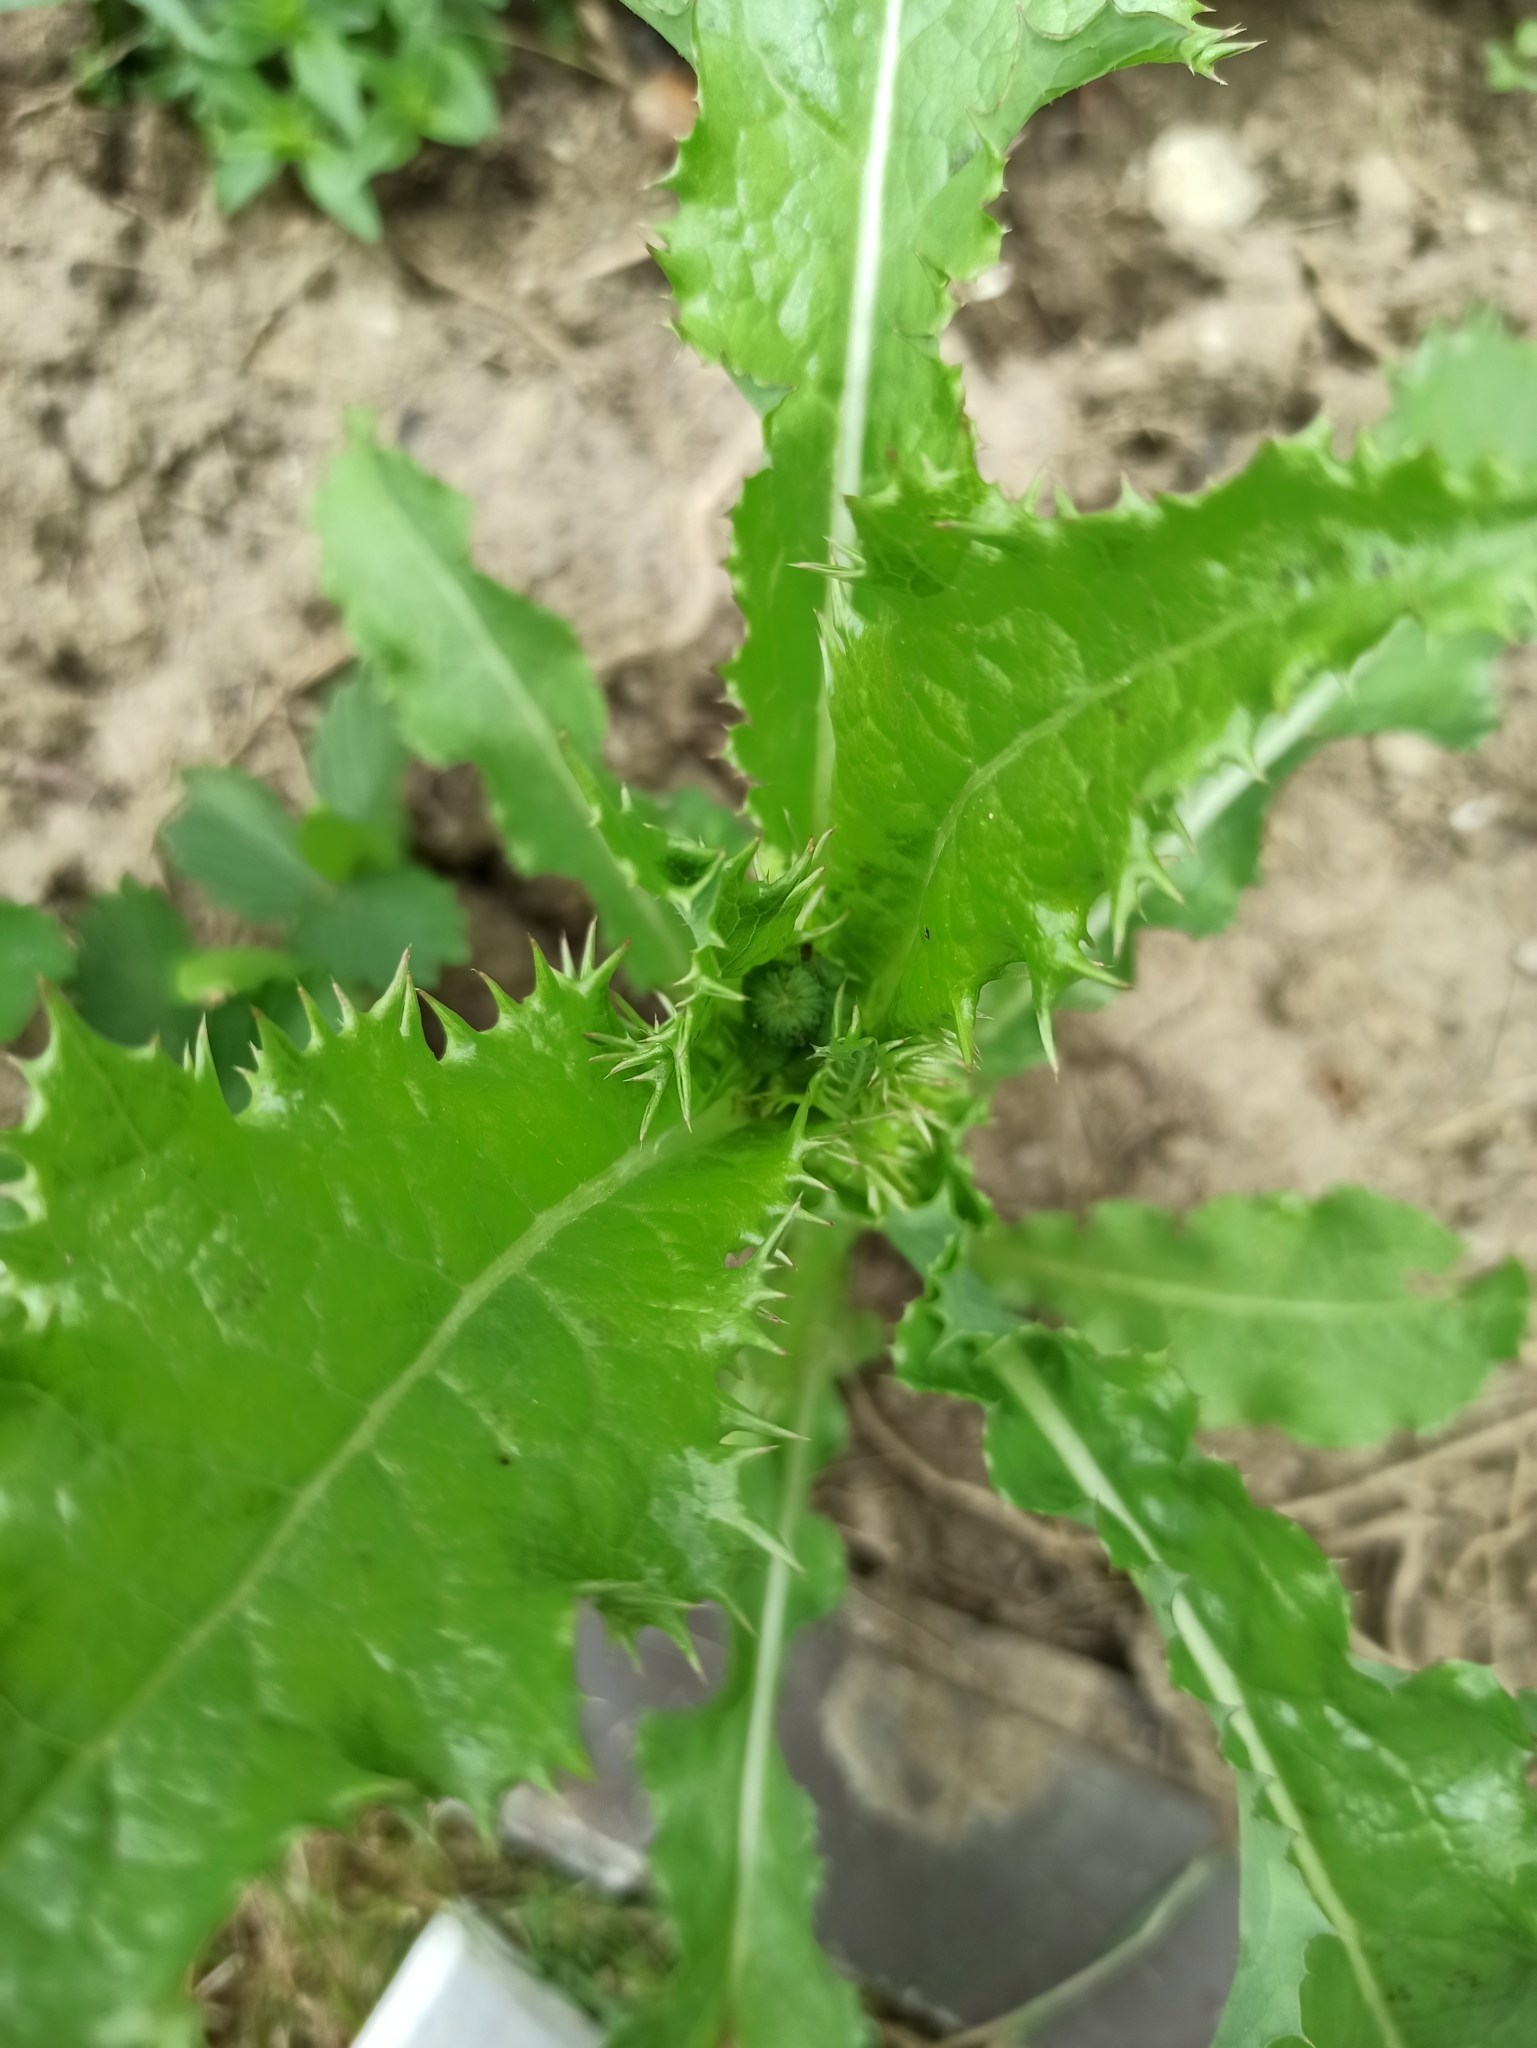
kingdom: Plantae
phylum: Tracheophyta
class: Magnoliopsida
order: Asterales
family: Asteraceae
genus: Sonchus
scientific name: Sonchus asper
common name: Prickly sow-thistle
